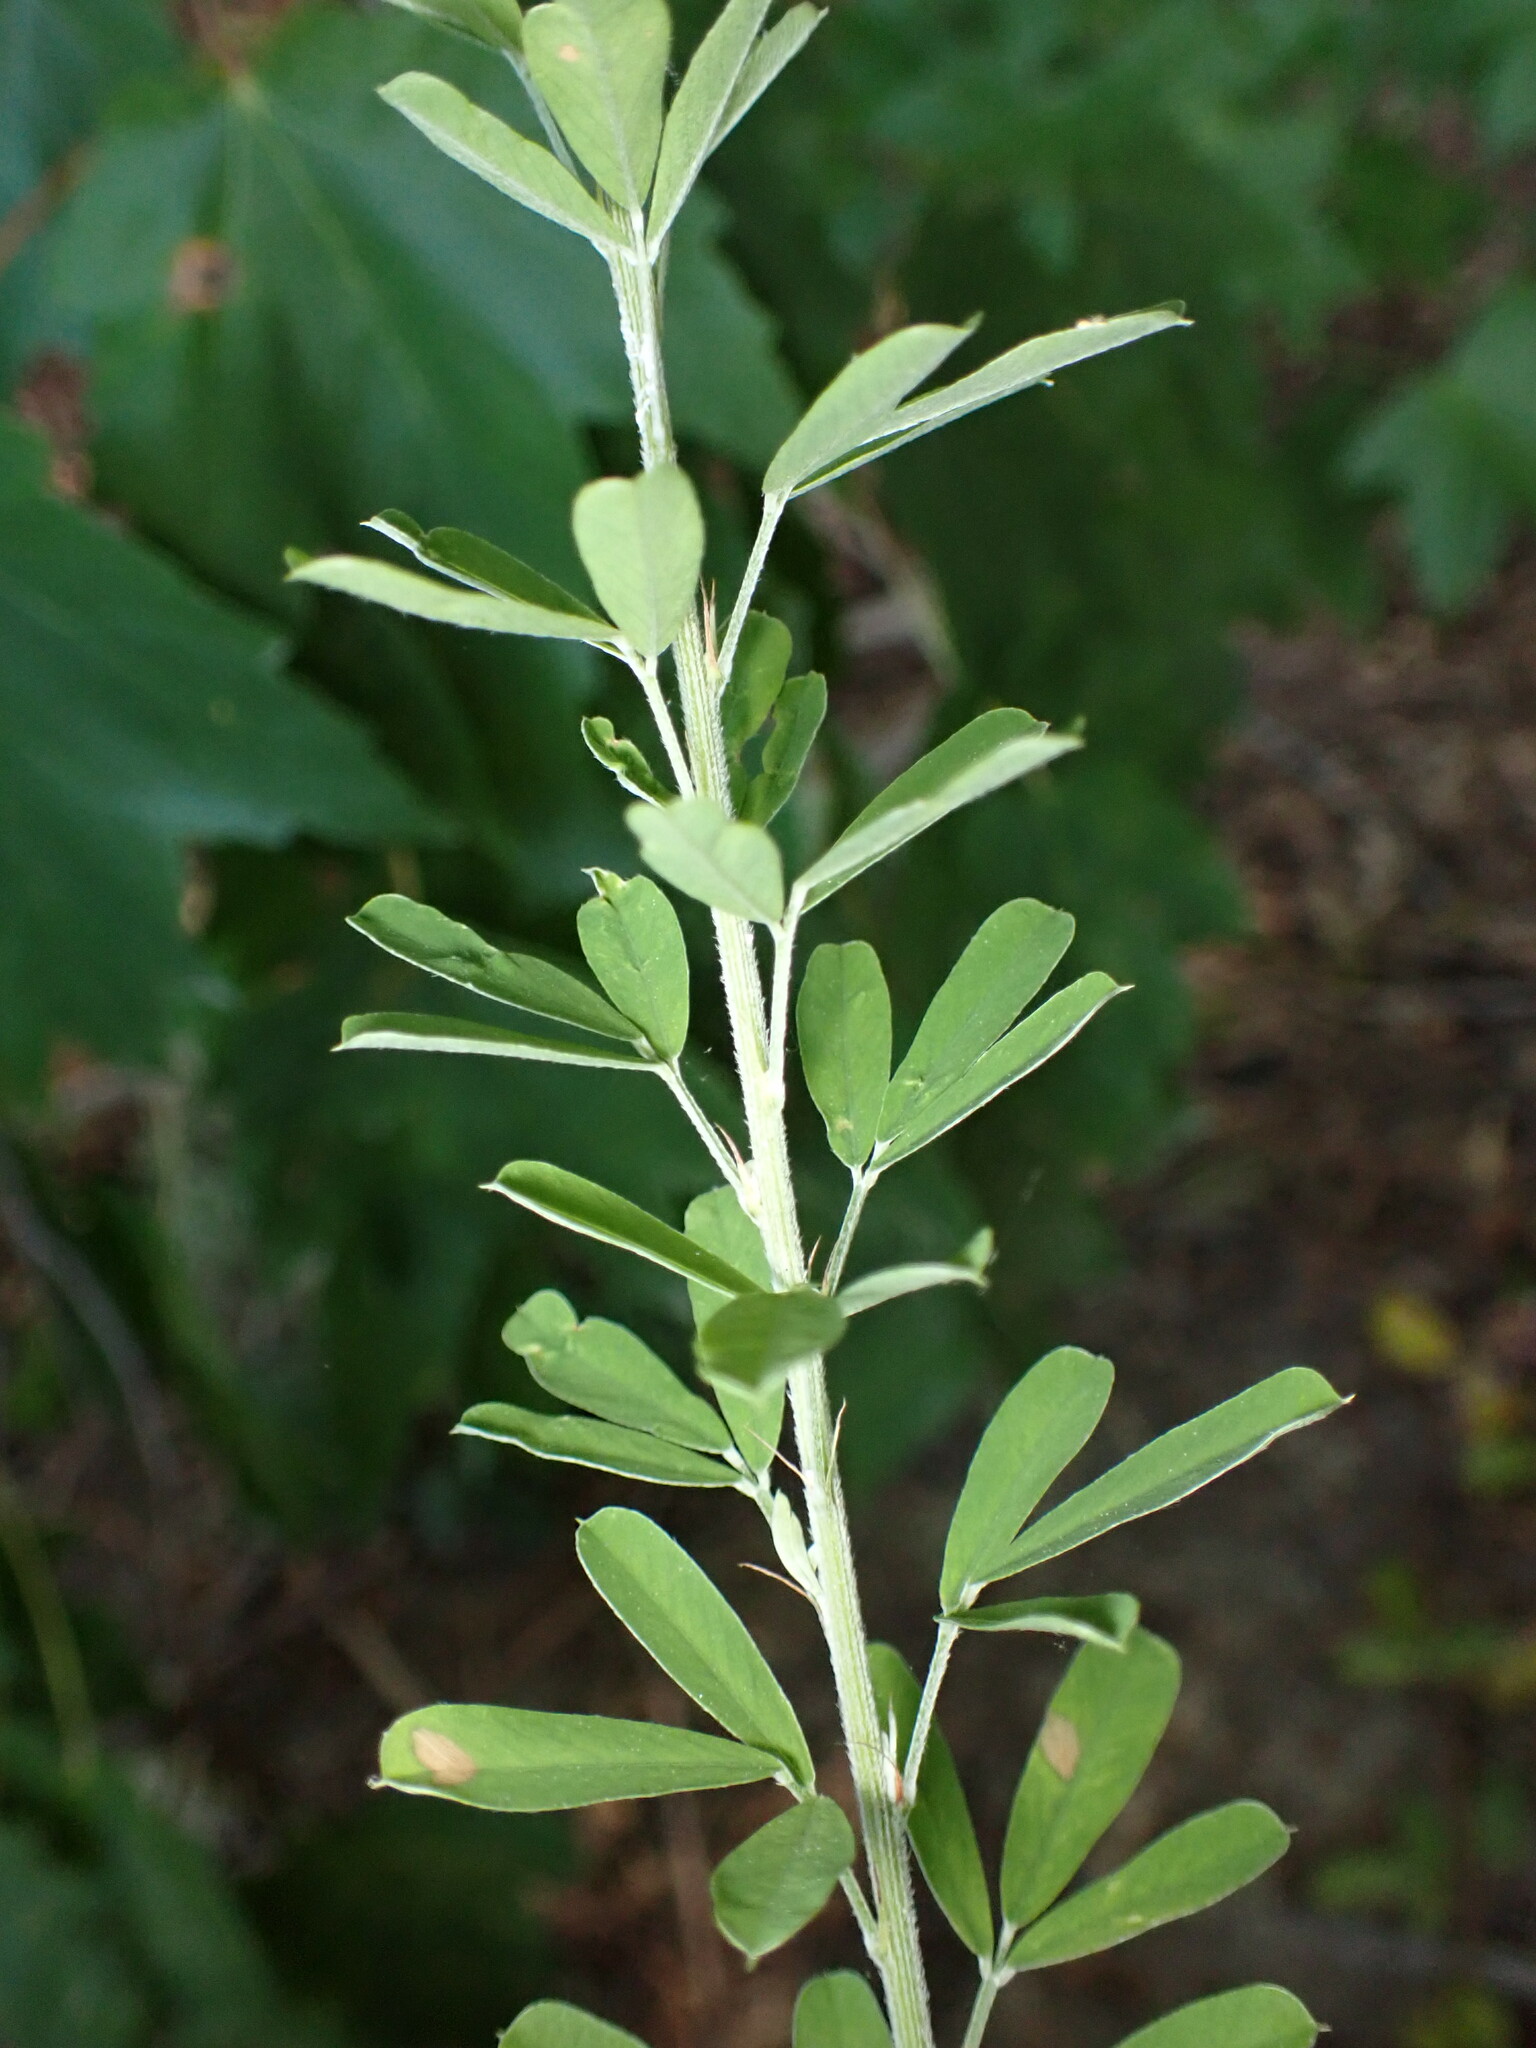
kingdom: Plantae
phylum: Tracheophyta
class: Magnoliopsida
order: Fabales
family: Fabaceae
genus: Lespedeza
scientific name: Lespedeza cuneata
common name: Chinese bush-clover
